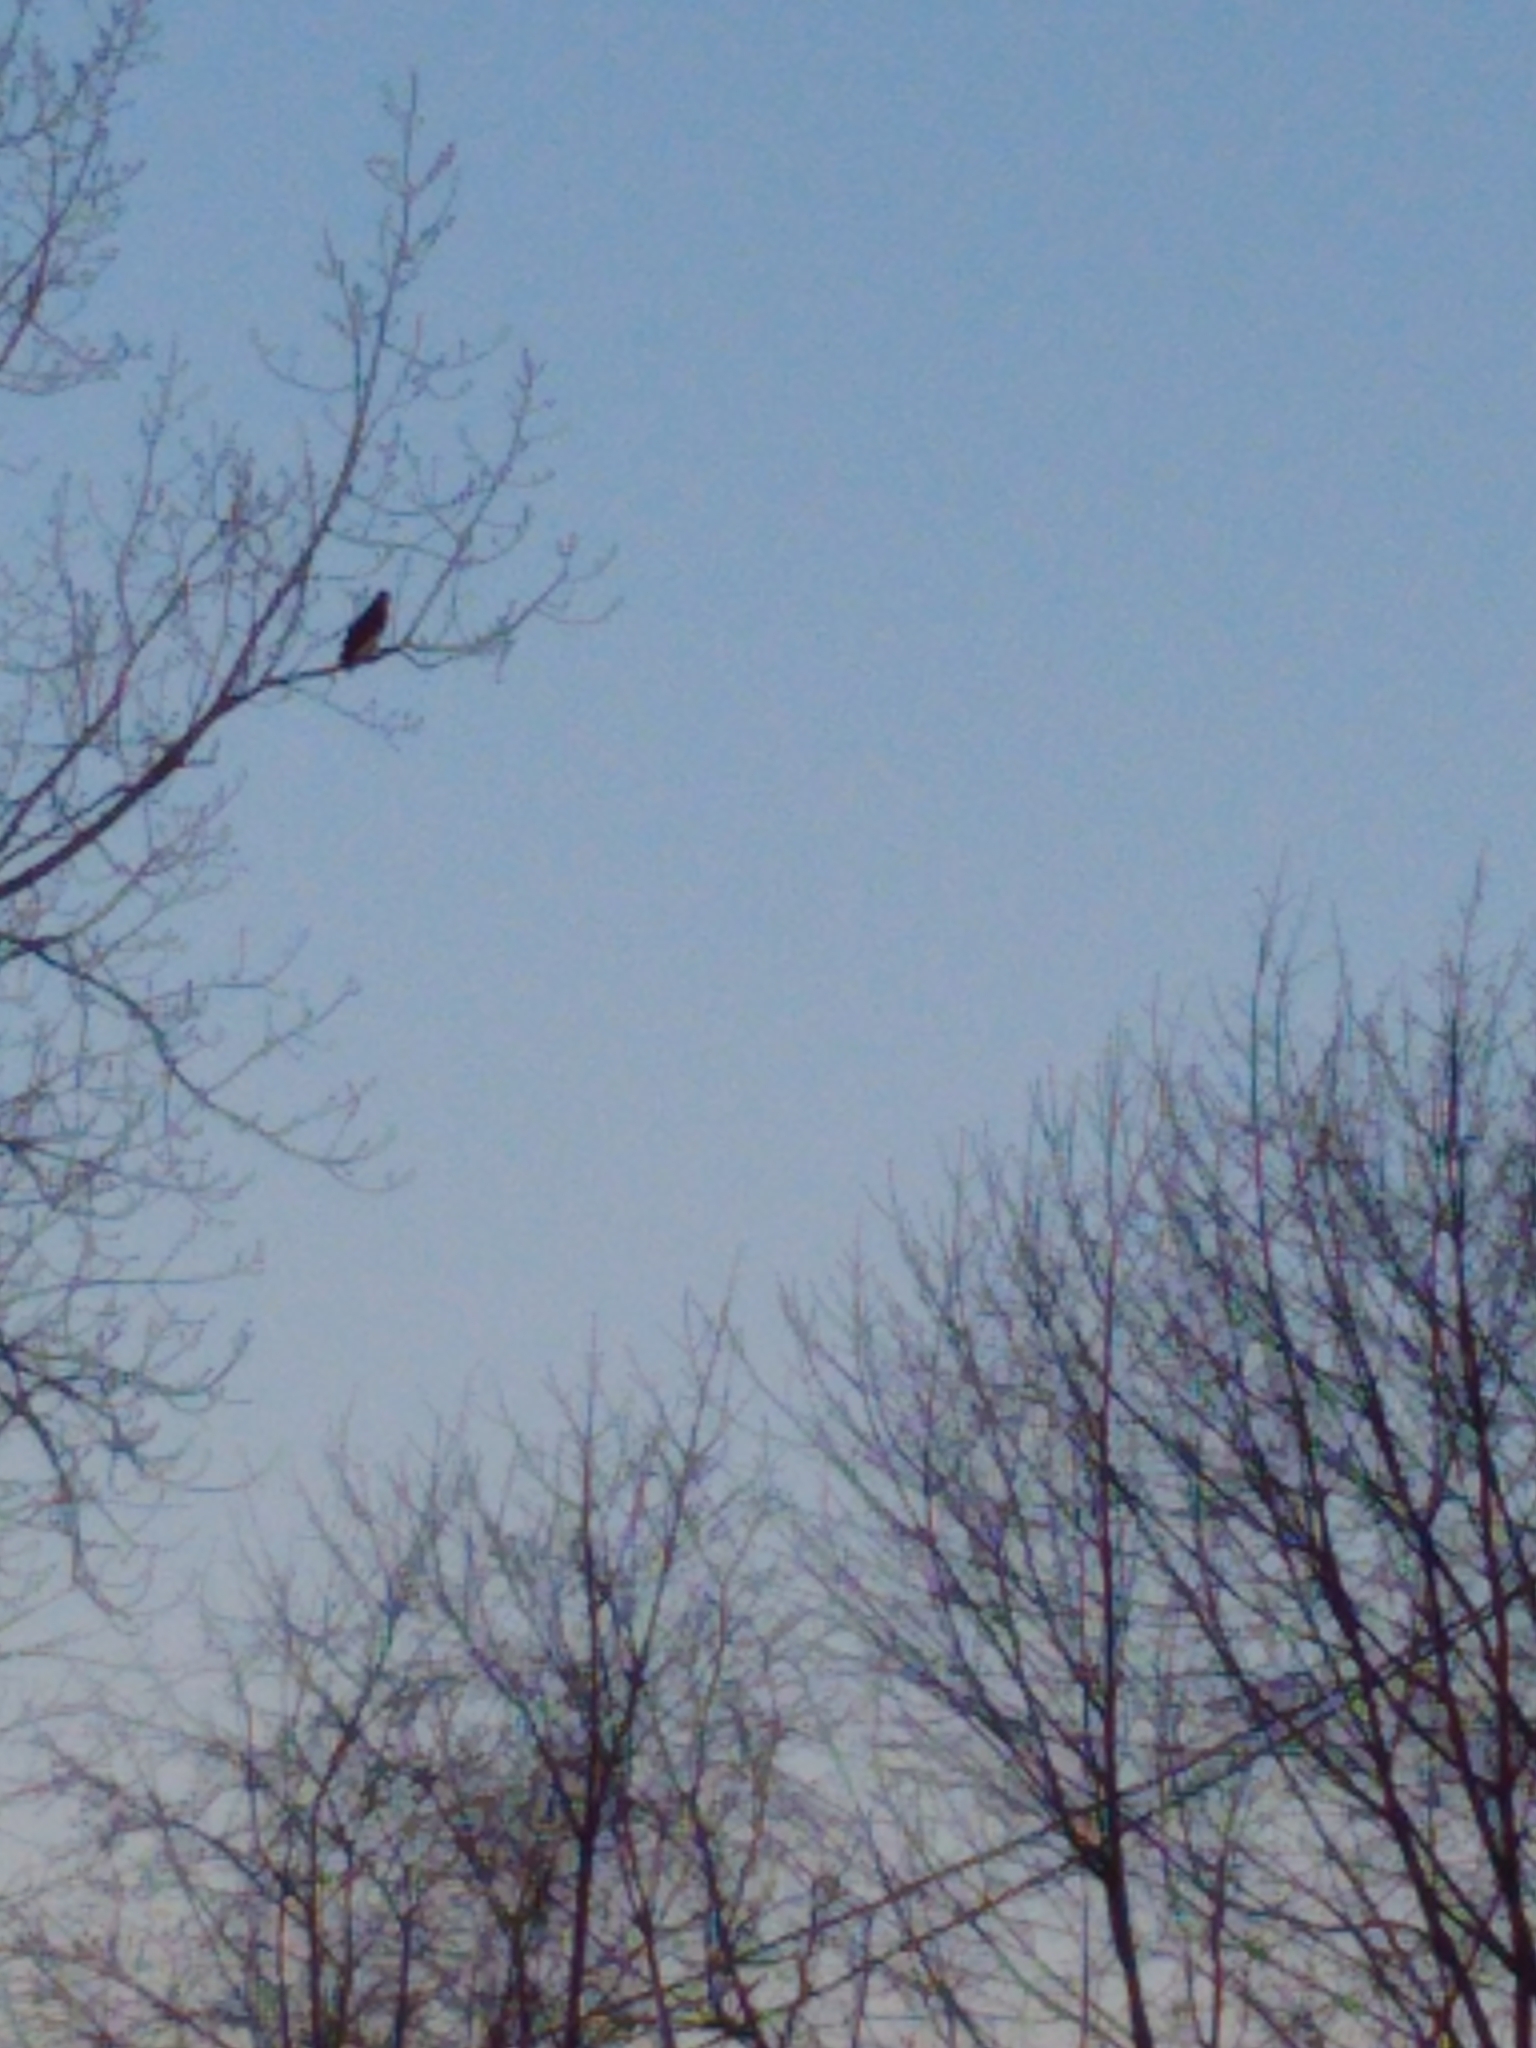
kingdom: Animalia
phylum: Chordata
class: Aves
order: Accipitriformes
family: Accipitridae
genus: Buteo
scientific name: Buteo jamaicensis
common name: Red-tailed hawk
